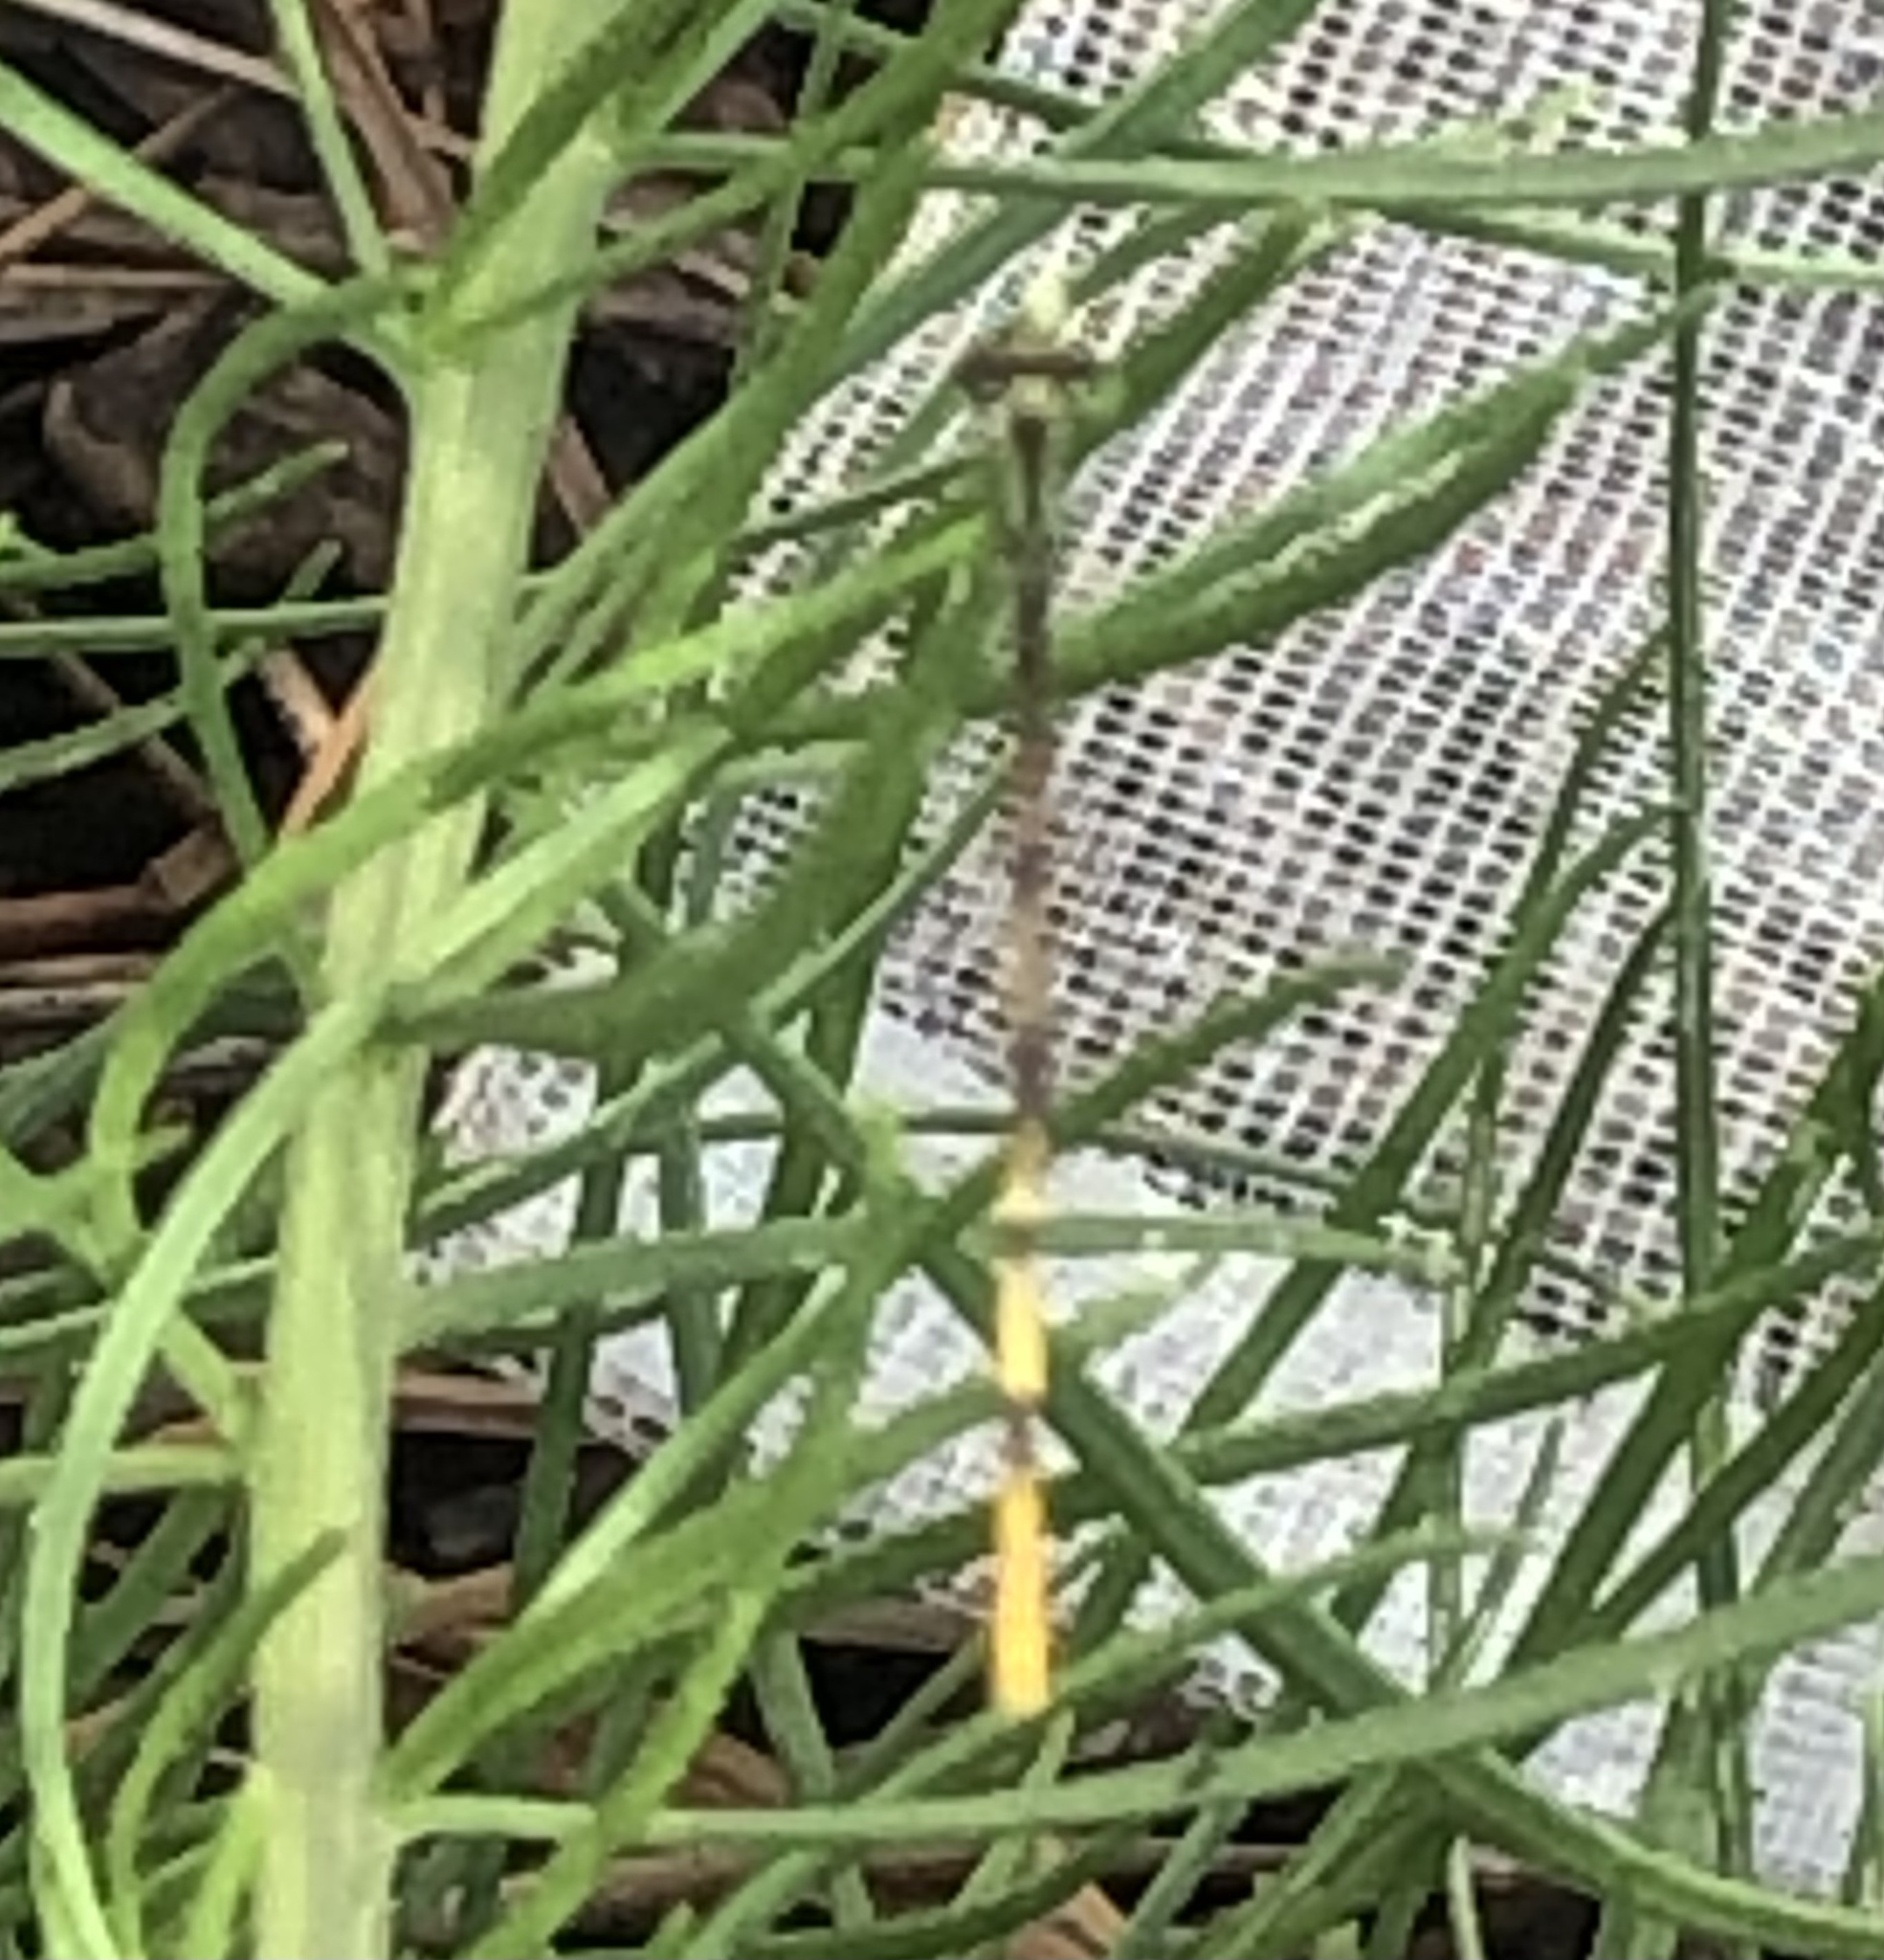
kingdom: Animalia
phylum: Arthropoda
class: Insecta
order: Odonata
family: Coenagrionidae
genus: Ischnura
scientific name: Ischnura hastata
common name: Citrine forktail
